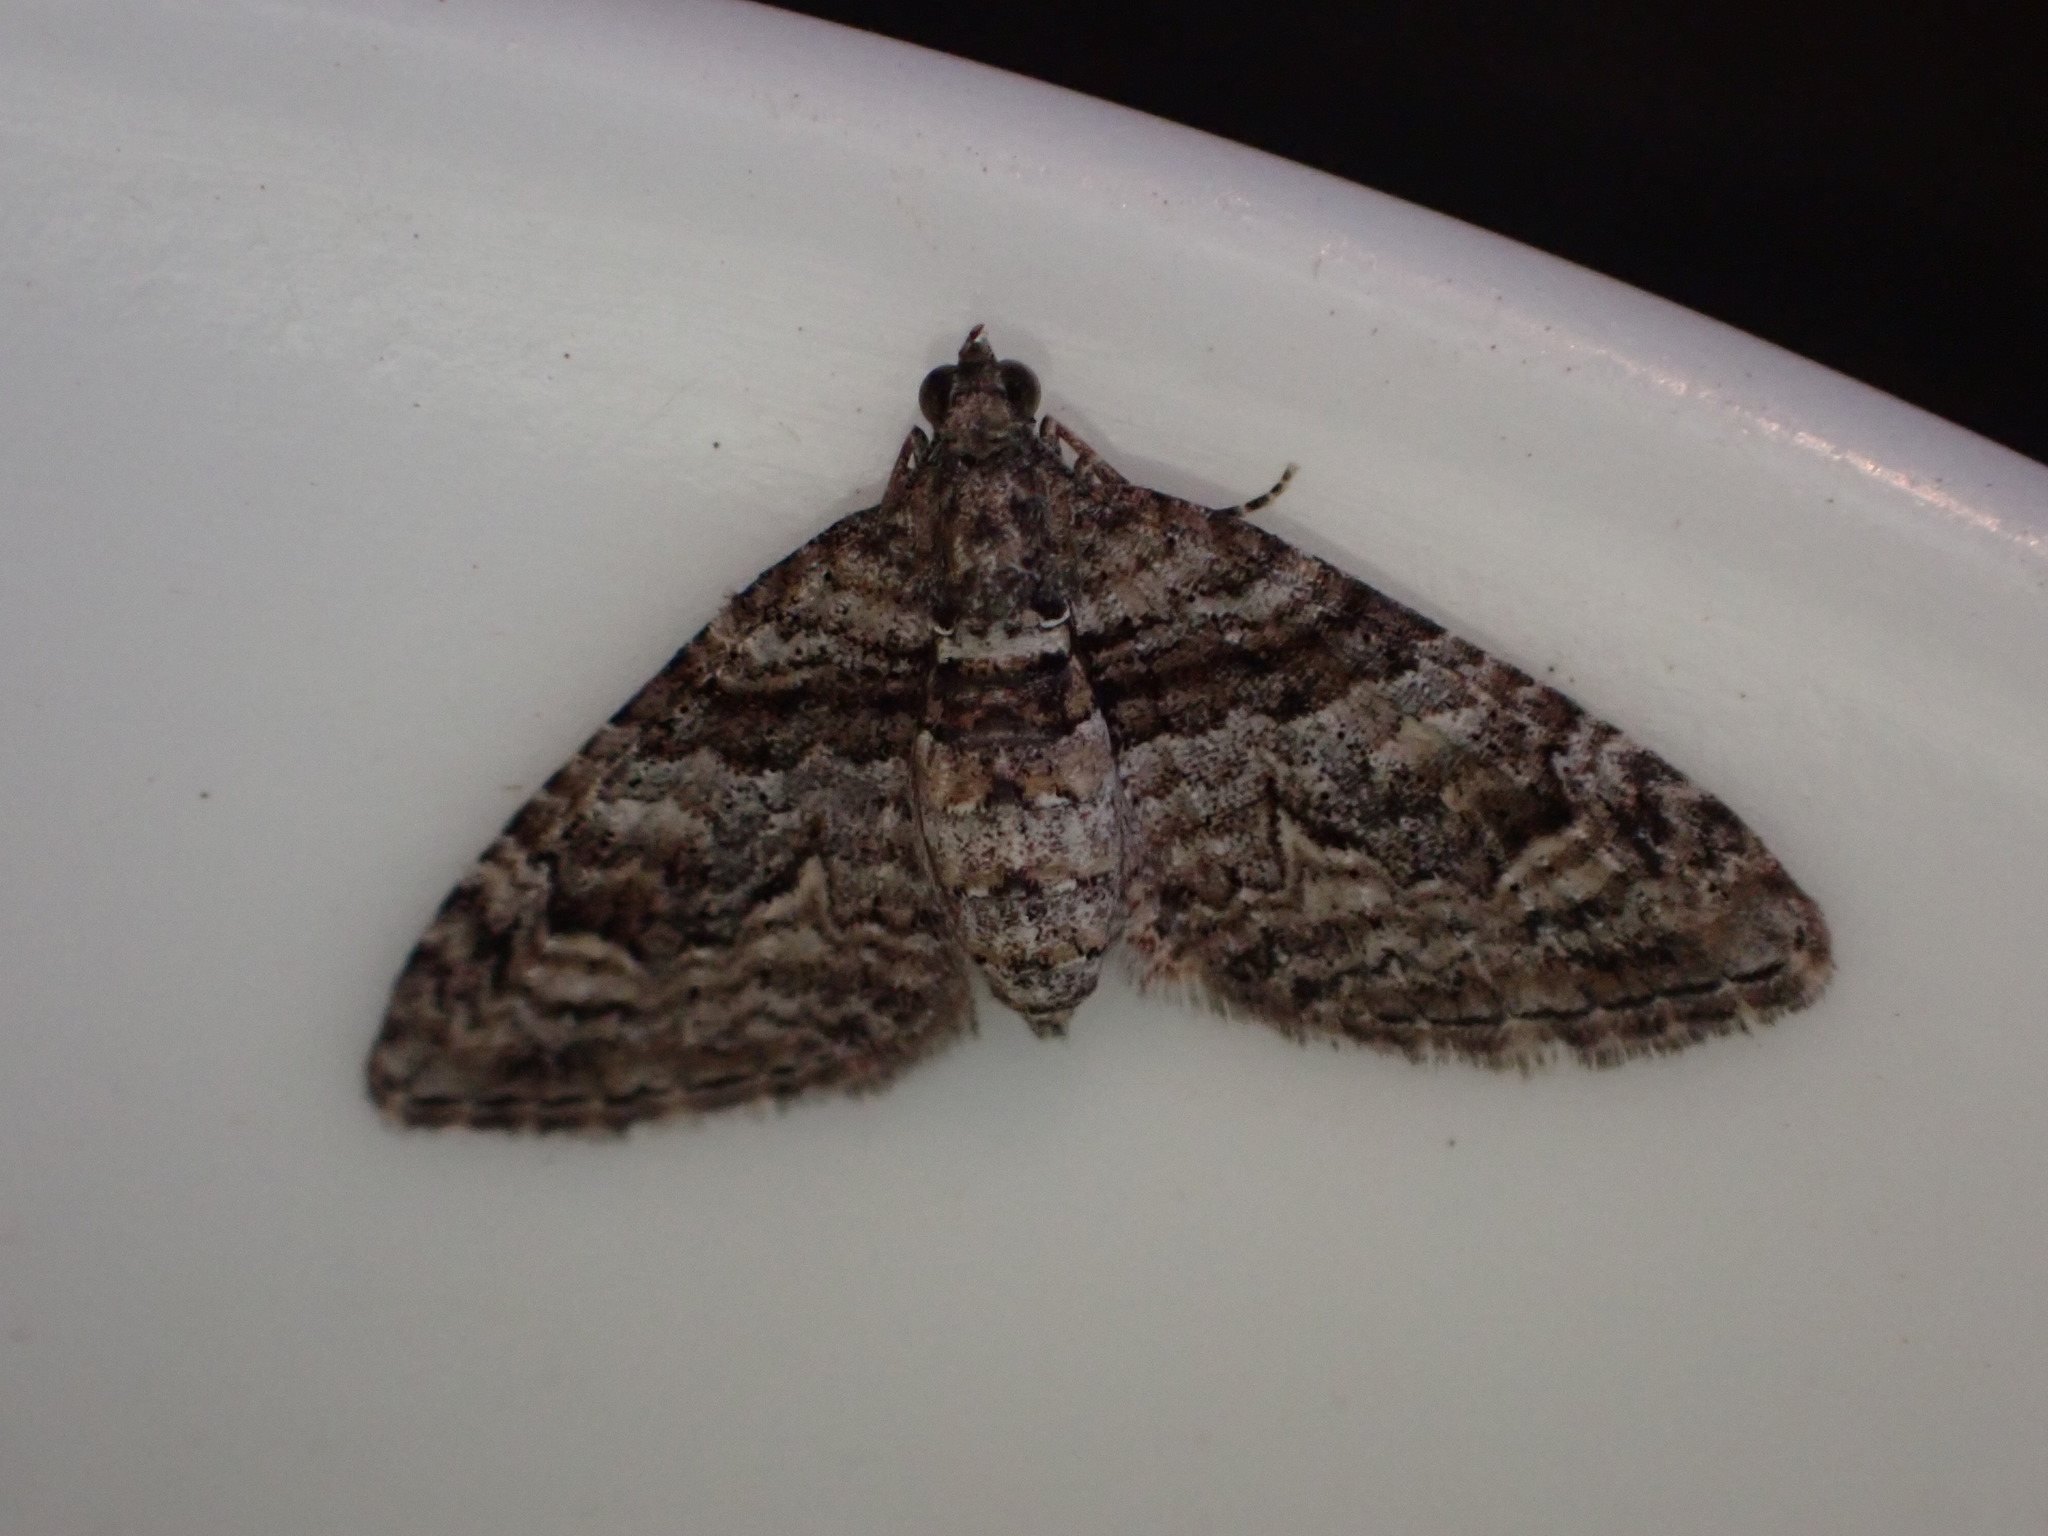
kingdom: Animalia
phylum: Arthropoda
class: Insecta
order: Lepidoptera
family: Geometridae
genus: Phrissogonus
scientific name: Phrissogonus laticostata
